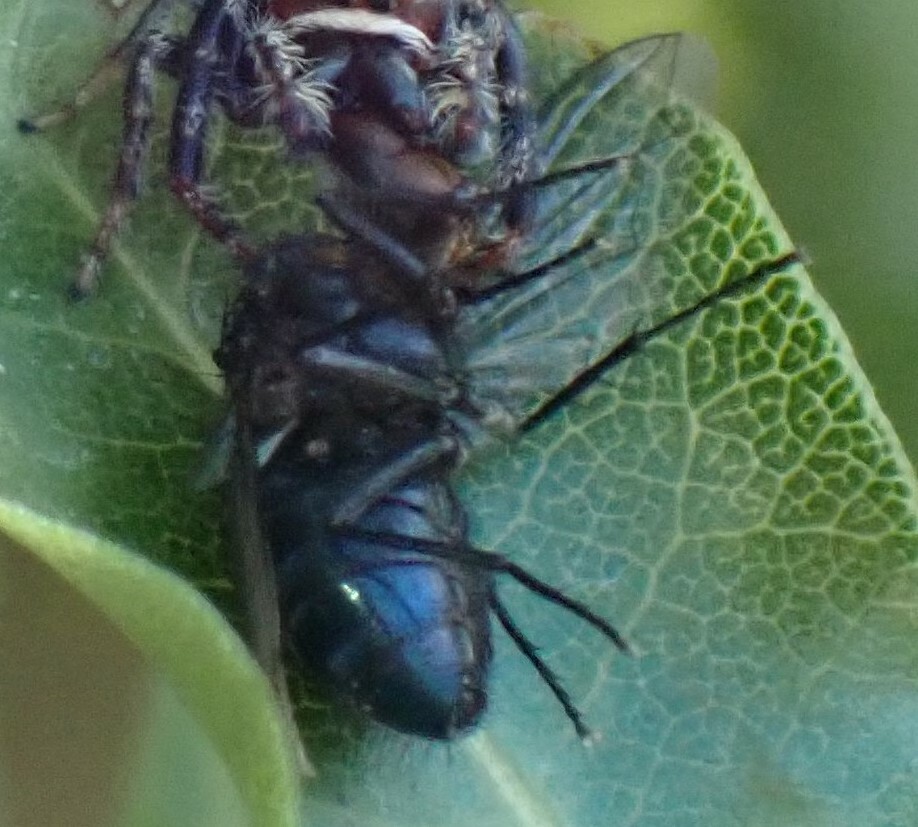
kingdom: Animalia
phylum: Arthropoda
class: Insecta
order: Diptera
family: Calliphoridae
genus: Calliphora
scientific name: Calliphora vicina
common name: Common blow flie
